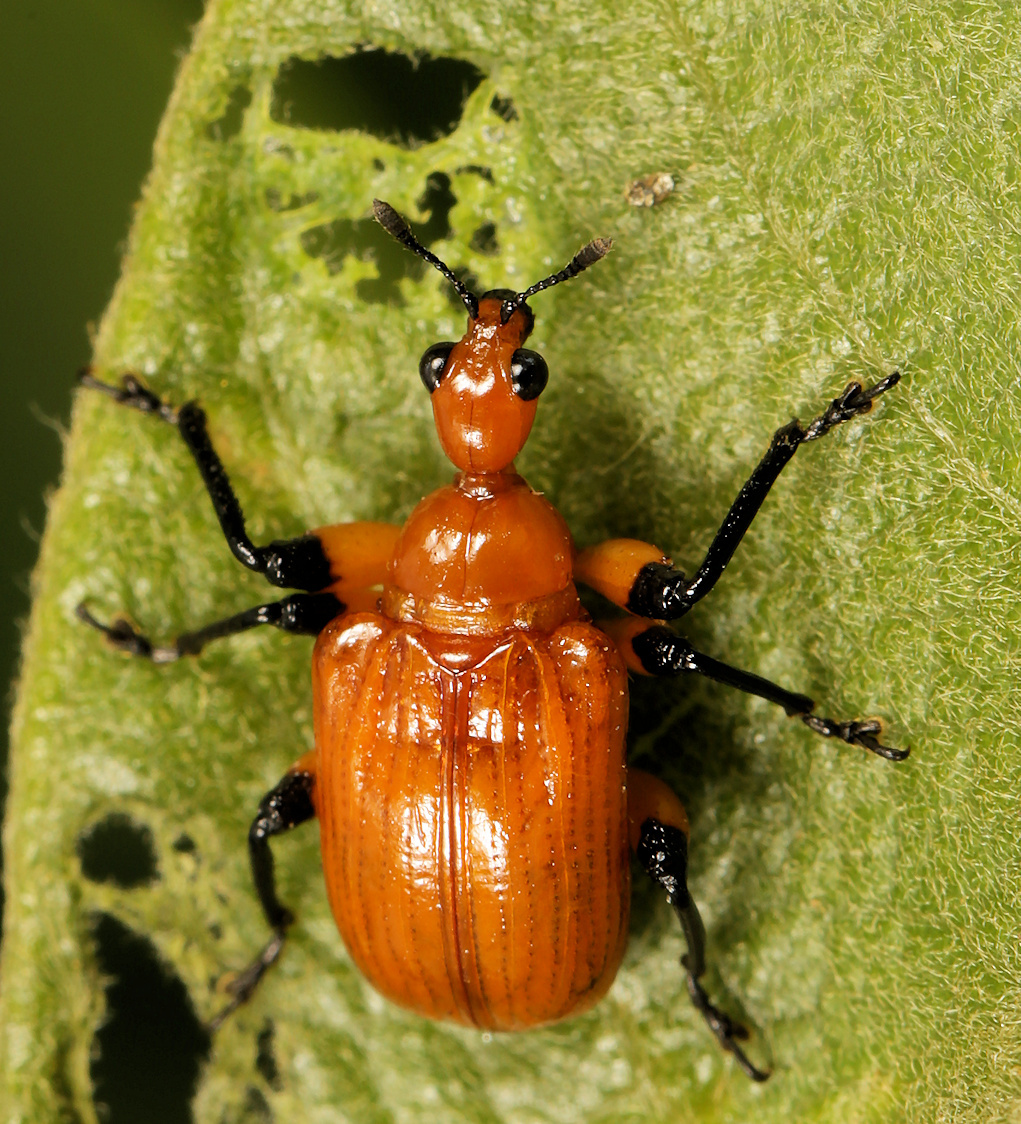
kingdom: Animalia
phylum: Arthropoda
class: Insecta
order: Coleoptera
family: Attelabidae
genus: Parapoderus
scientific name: Parapoderus nigrotibialis
